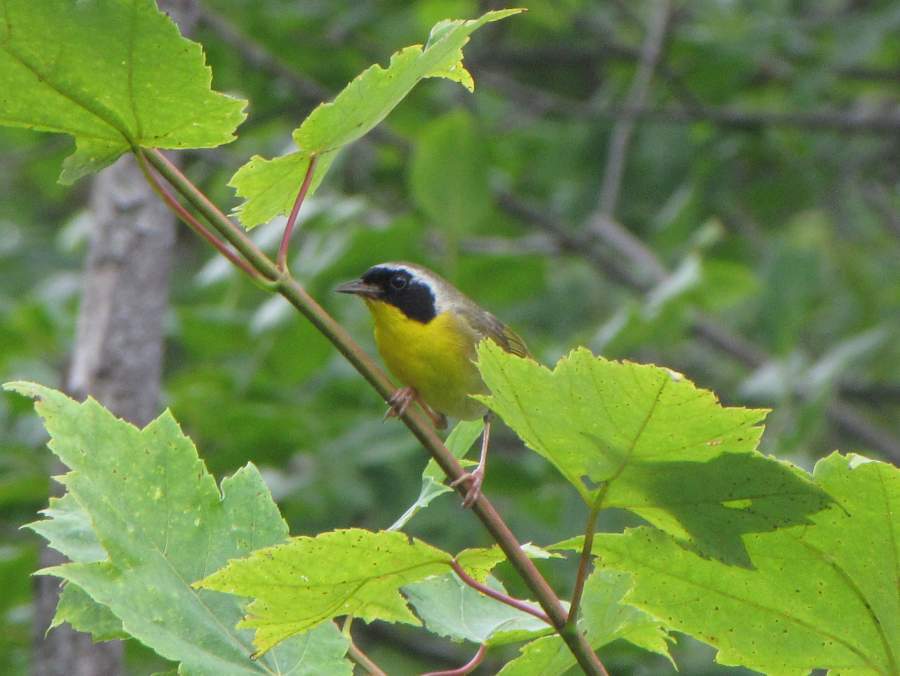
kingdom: Animalia
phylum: Chordata
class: Aves
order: Passeriformes
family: Parulidae
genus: Geothlypis
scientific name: Geothlypis trichas
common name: Common yellowthroat
